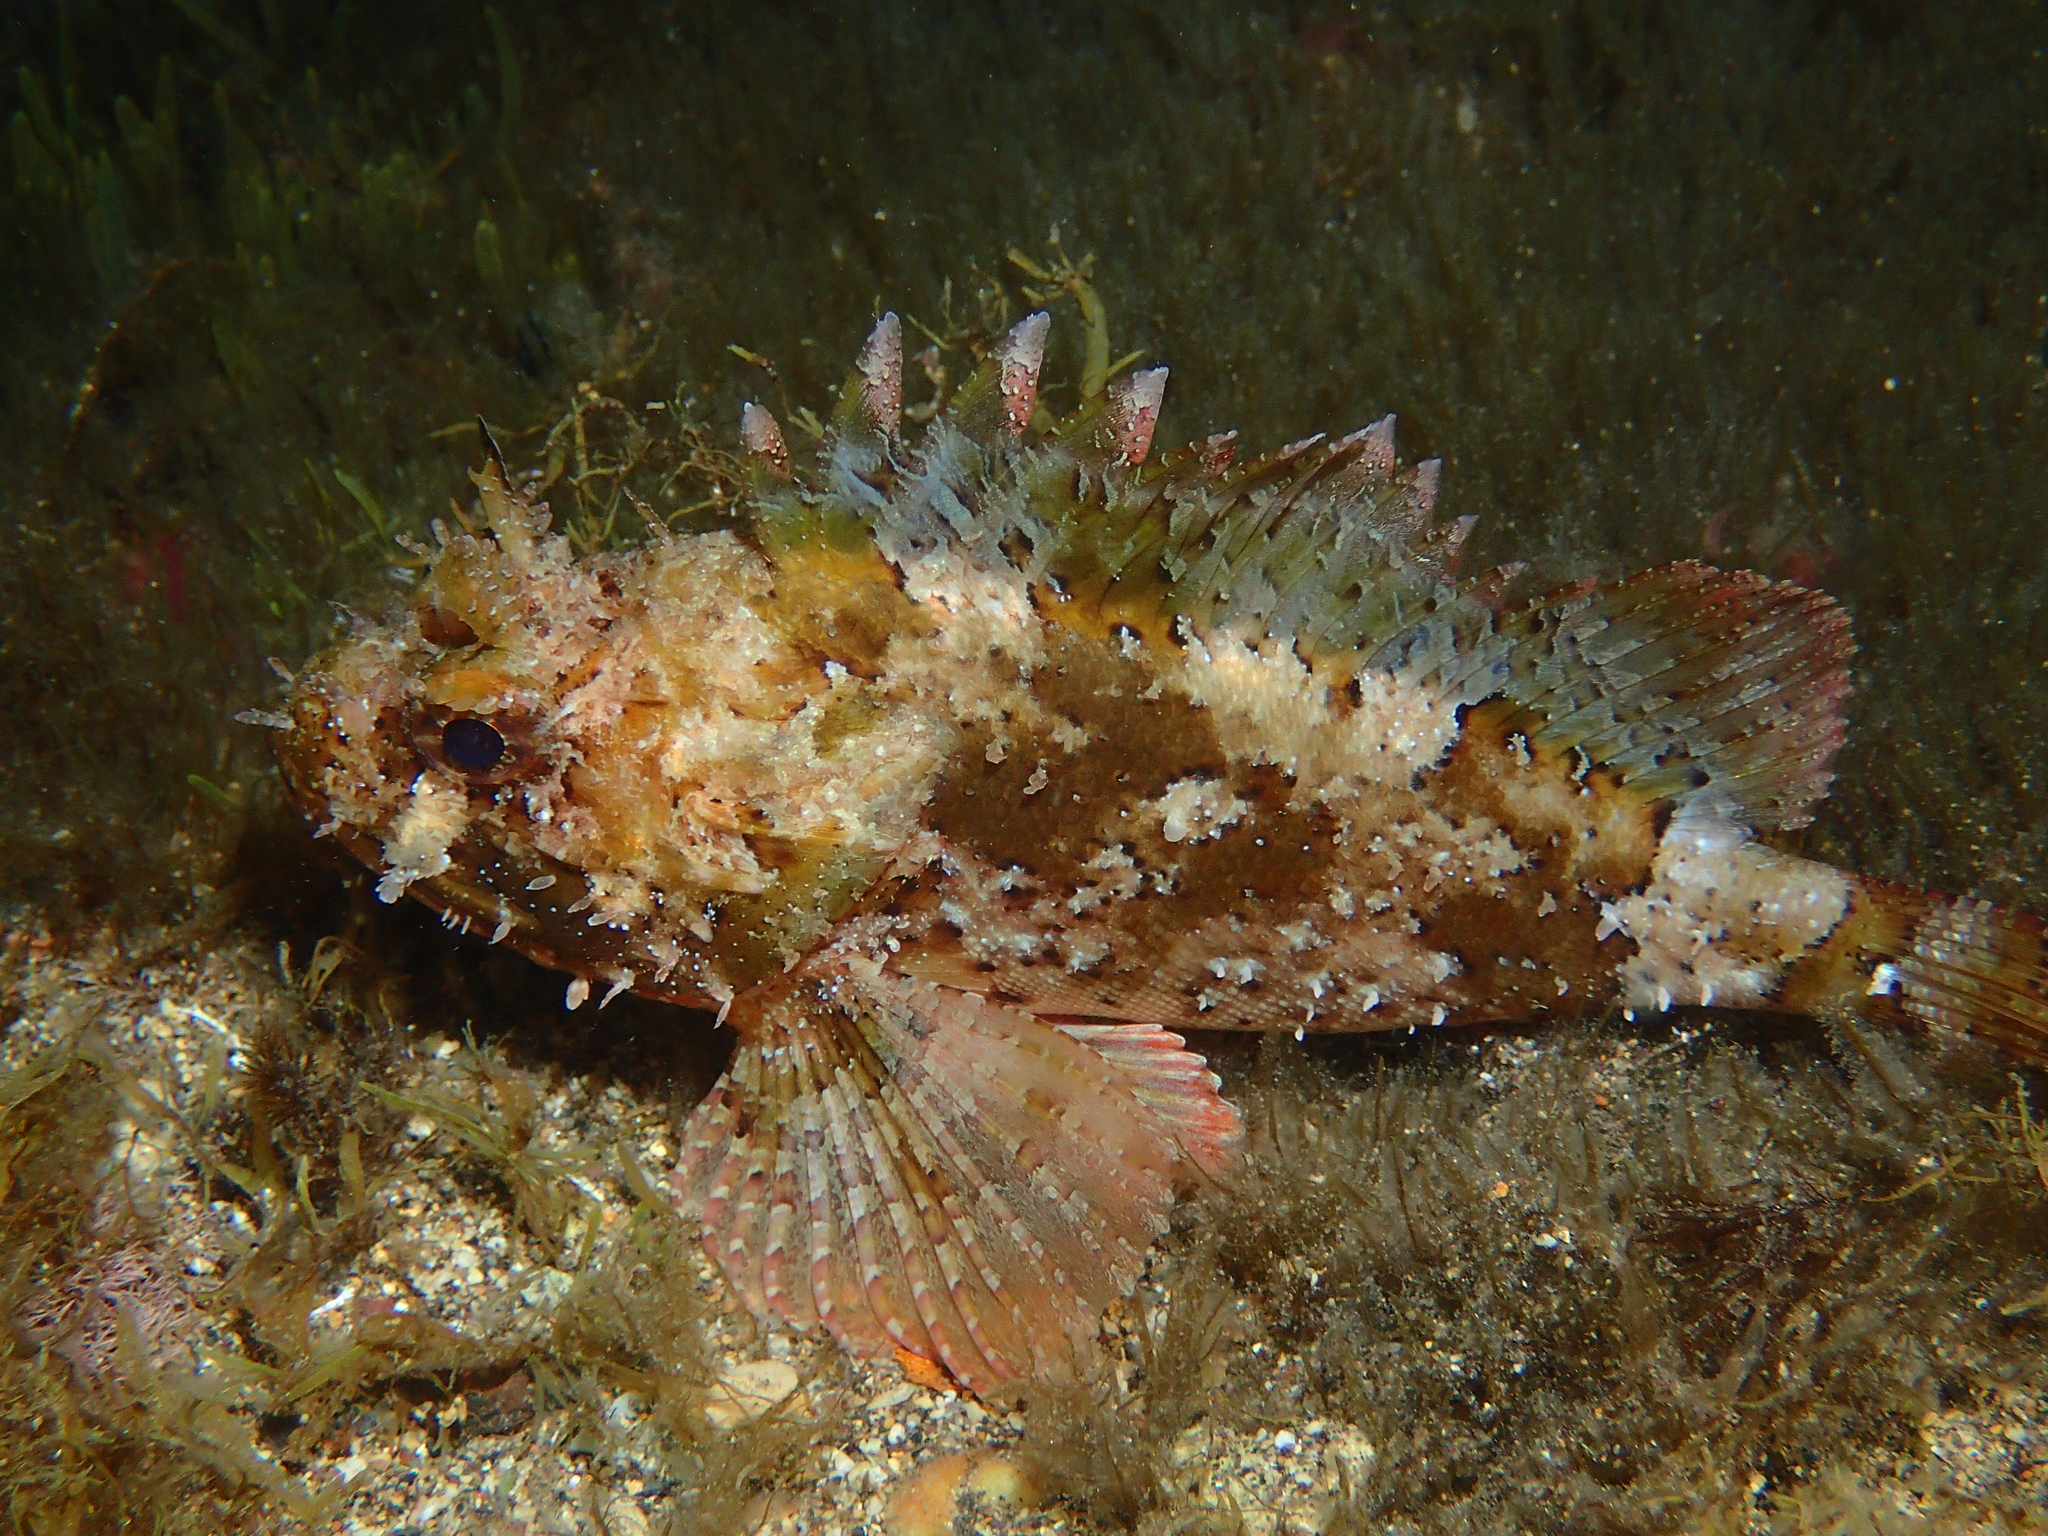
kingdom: Animalia
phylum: Chordata
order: Scorpaeniformes
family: Scorpaenidae
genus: Scorpaena
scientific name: Scorpaena porcus
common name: Black scorpionfish
